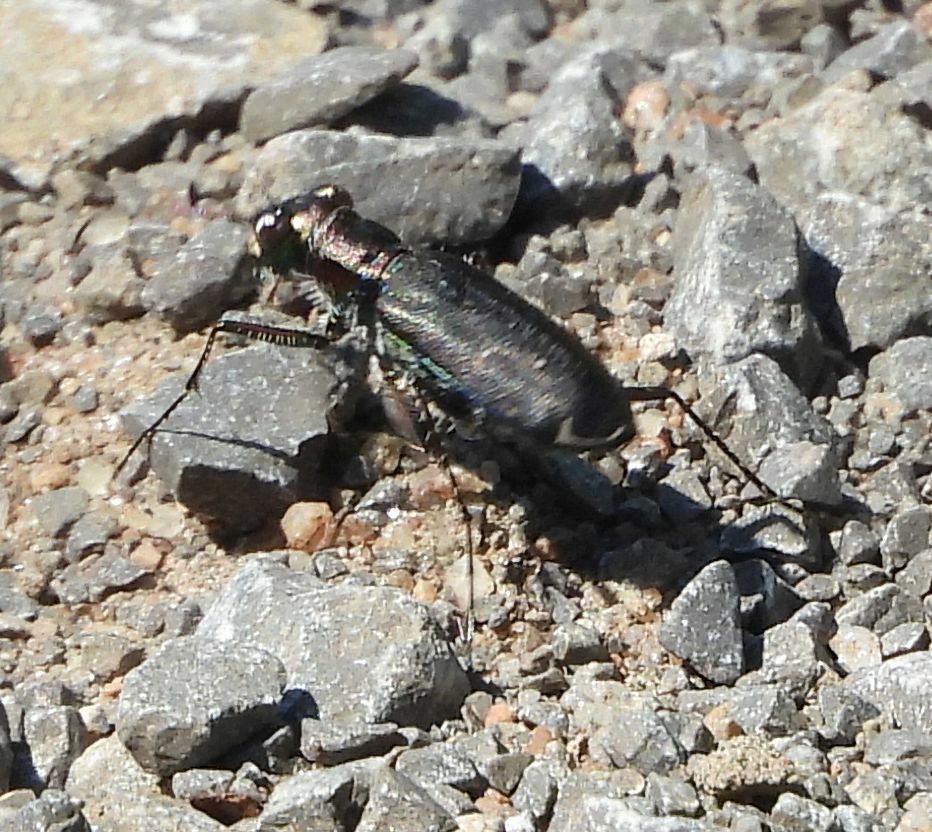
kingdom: Animalia
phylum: Arthropoda
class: Insecta
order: Coleoptera
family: Carabidae
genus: Cicindela
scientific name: Cicindela punctulata
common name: Punctured tiger beetle
